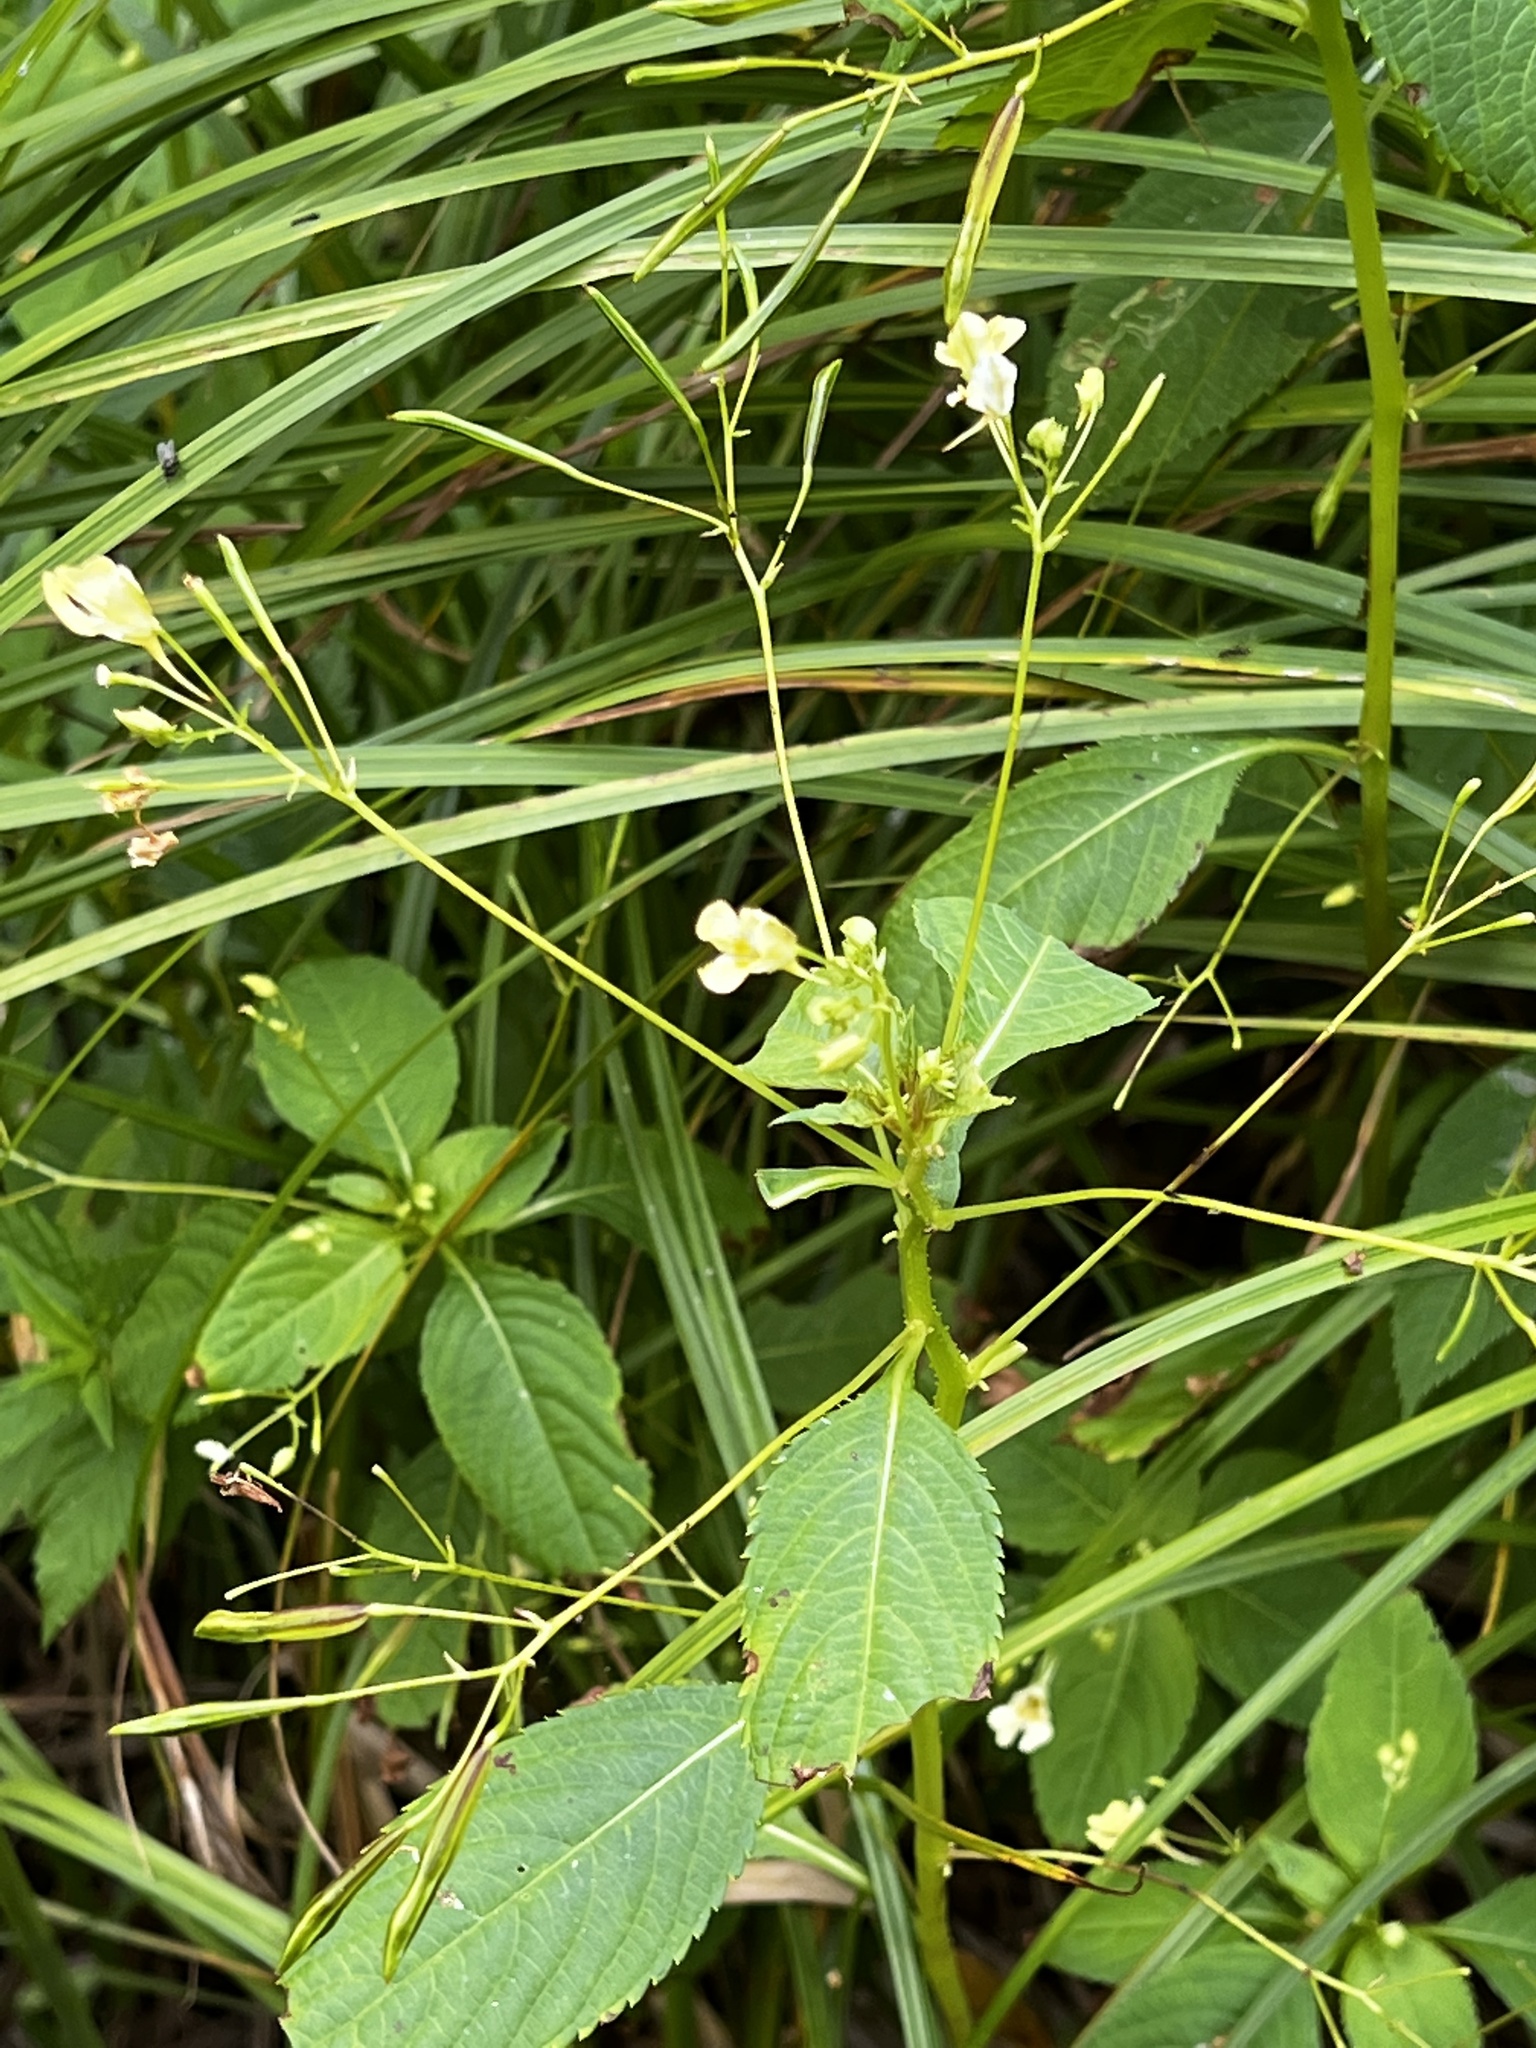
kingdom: Plantae
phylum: Tracheophyta
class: Magnoliopsida
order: Ericales
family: Balsaminaceae
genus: Impatiens
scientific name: Impatiens parviflora
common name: Small balsam
